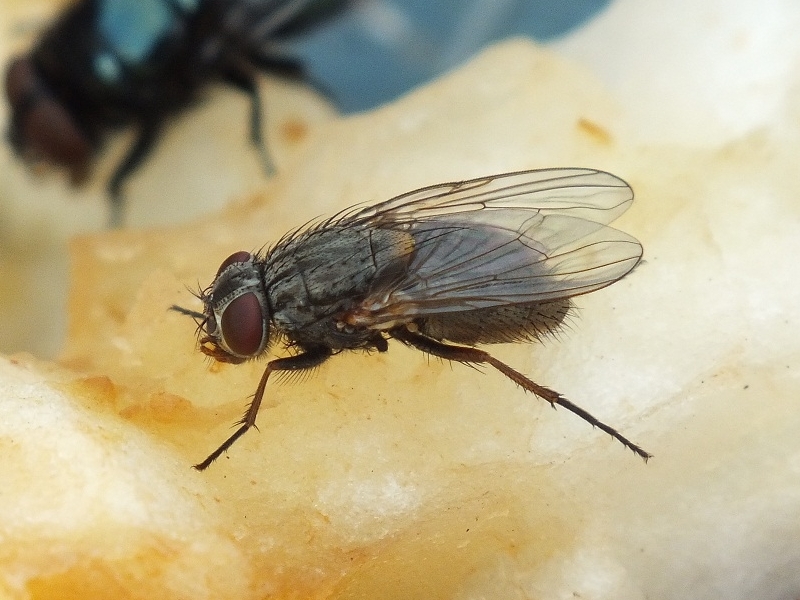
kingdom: Animalia
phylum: Arthropoda
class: Insecta
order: Diptera
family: Muscidae
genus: Muscina
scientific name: Muscina stabulans
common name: False stable fly
